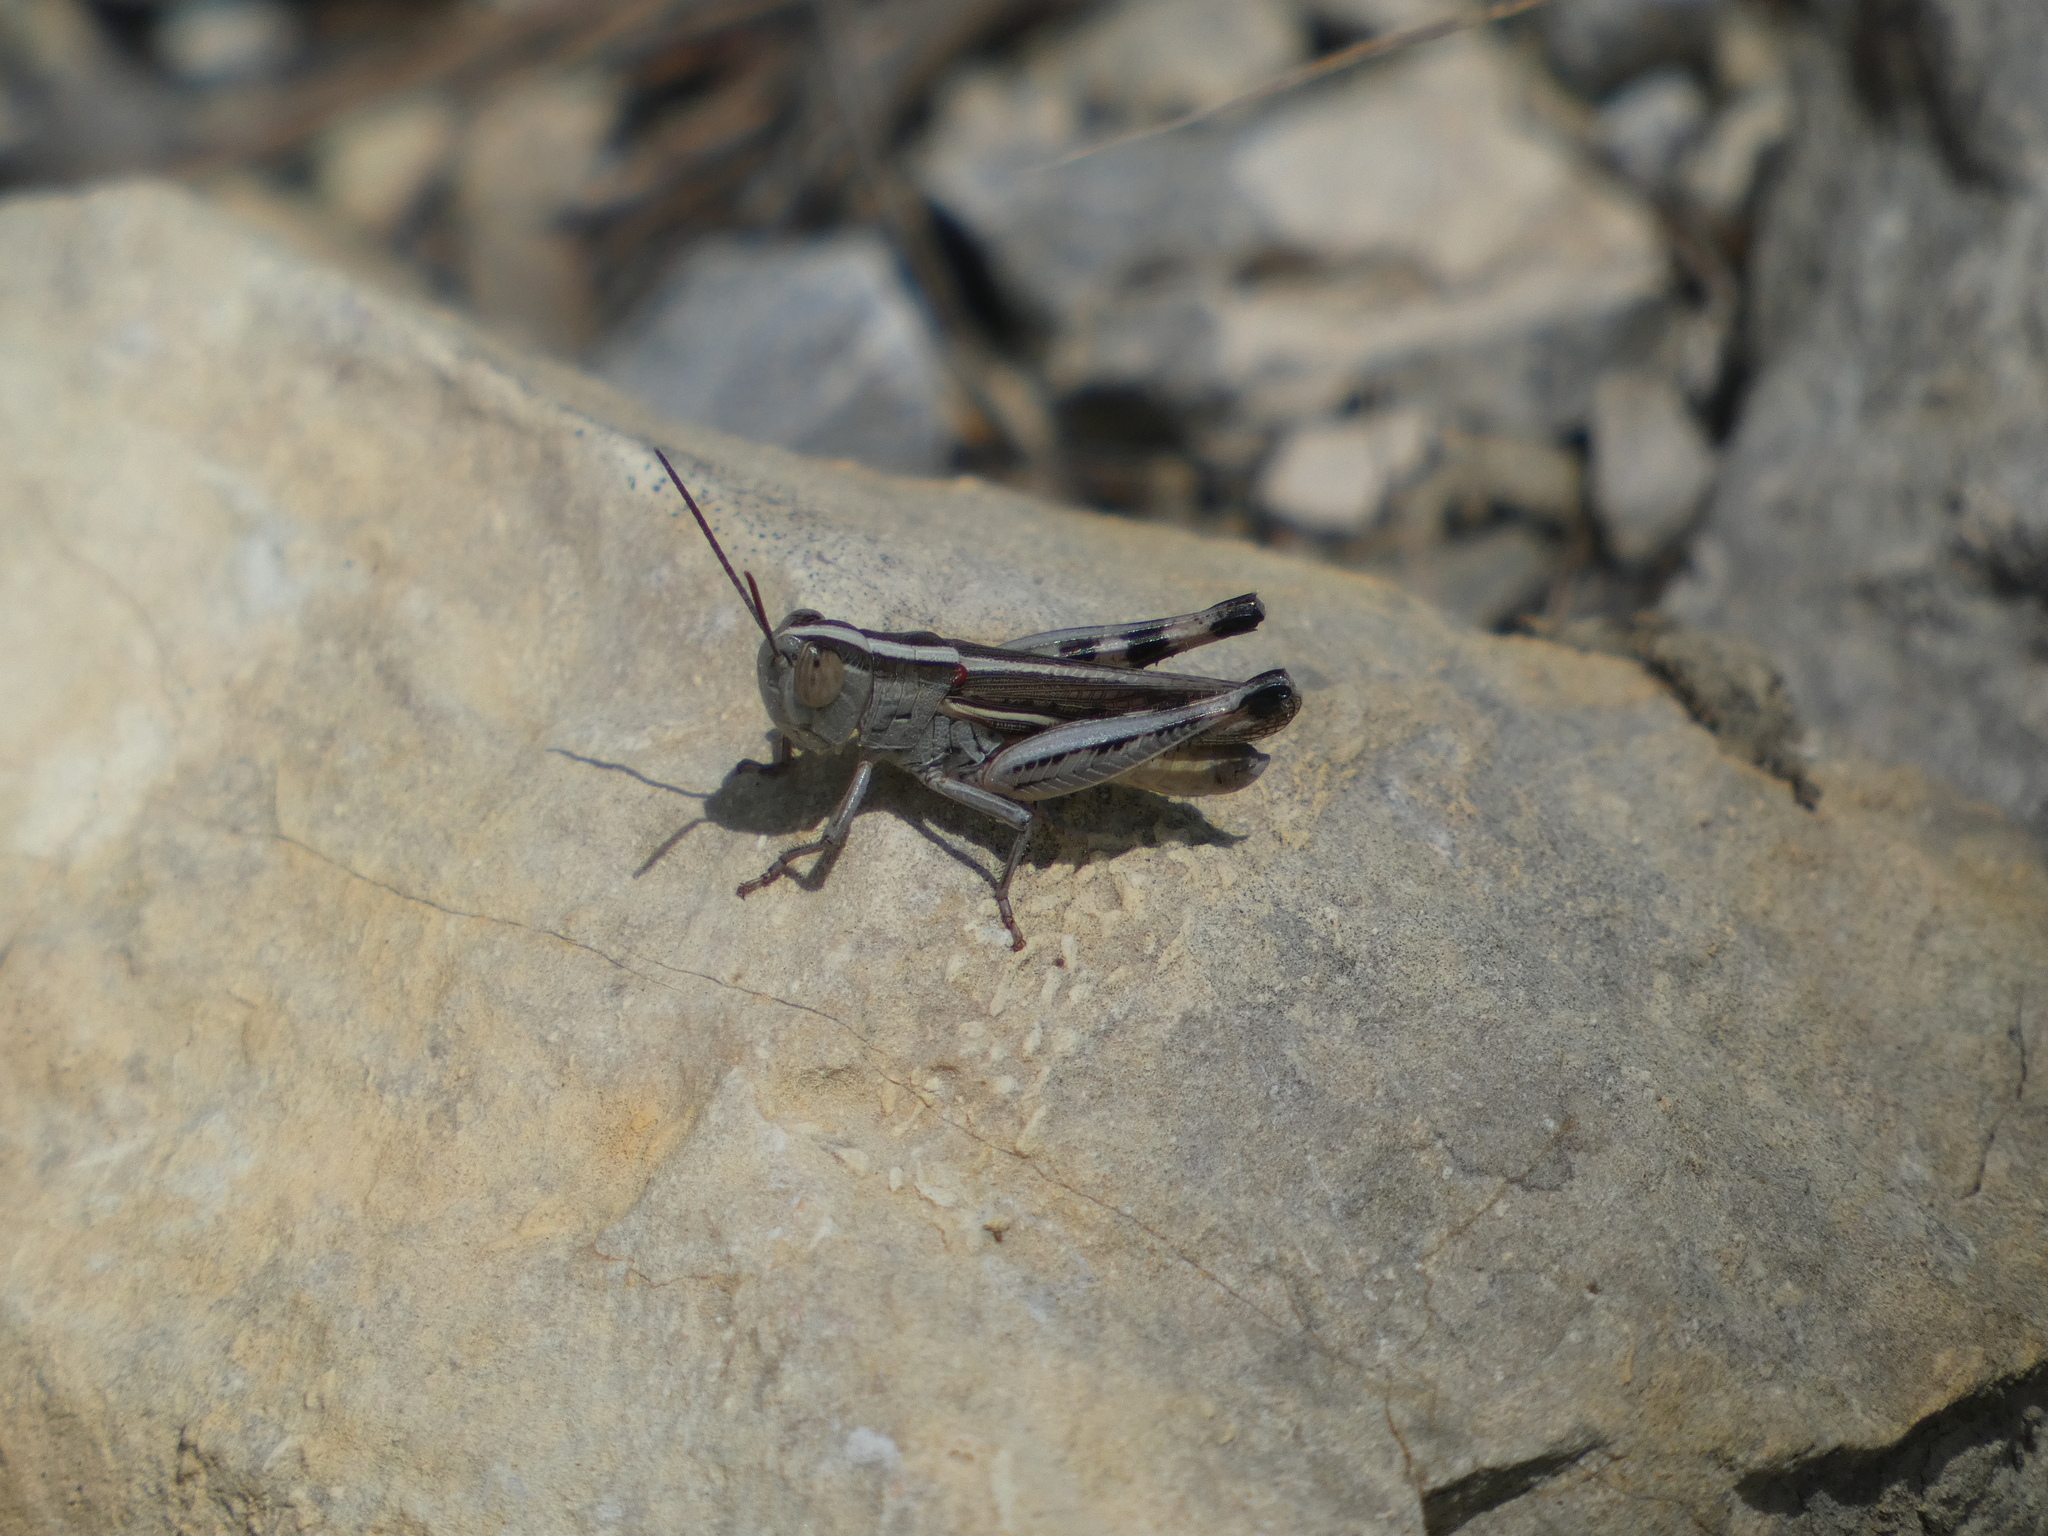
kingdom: Animalia
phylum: Arthropoda
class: Insecta
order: Orthoptera
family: Acrididae
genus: Ramburiella
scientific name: Ramburiella hispanica
